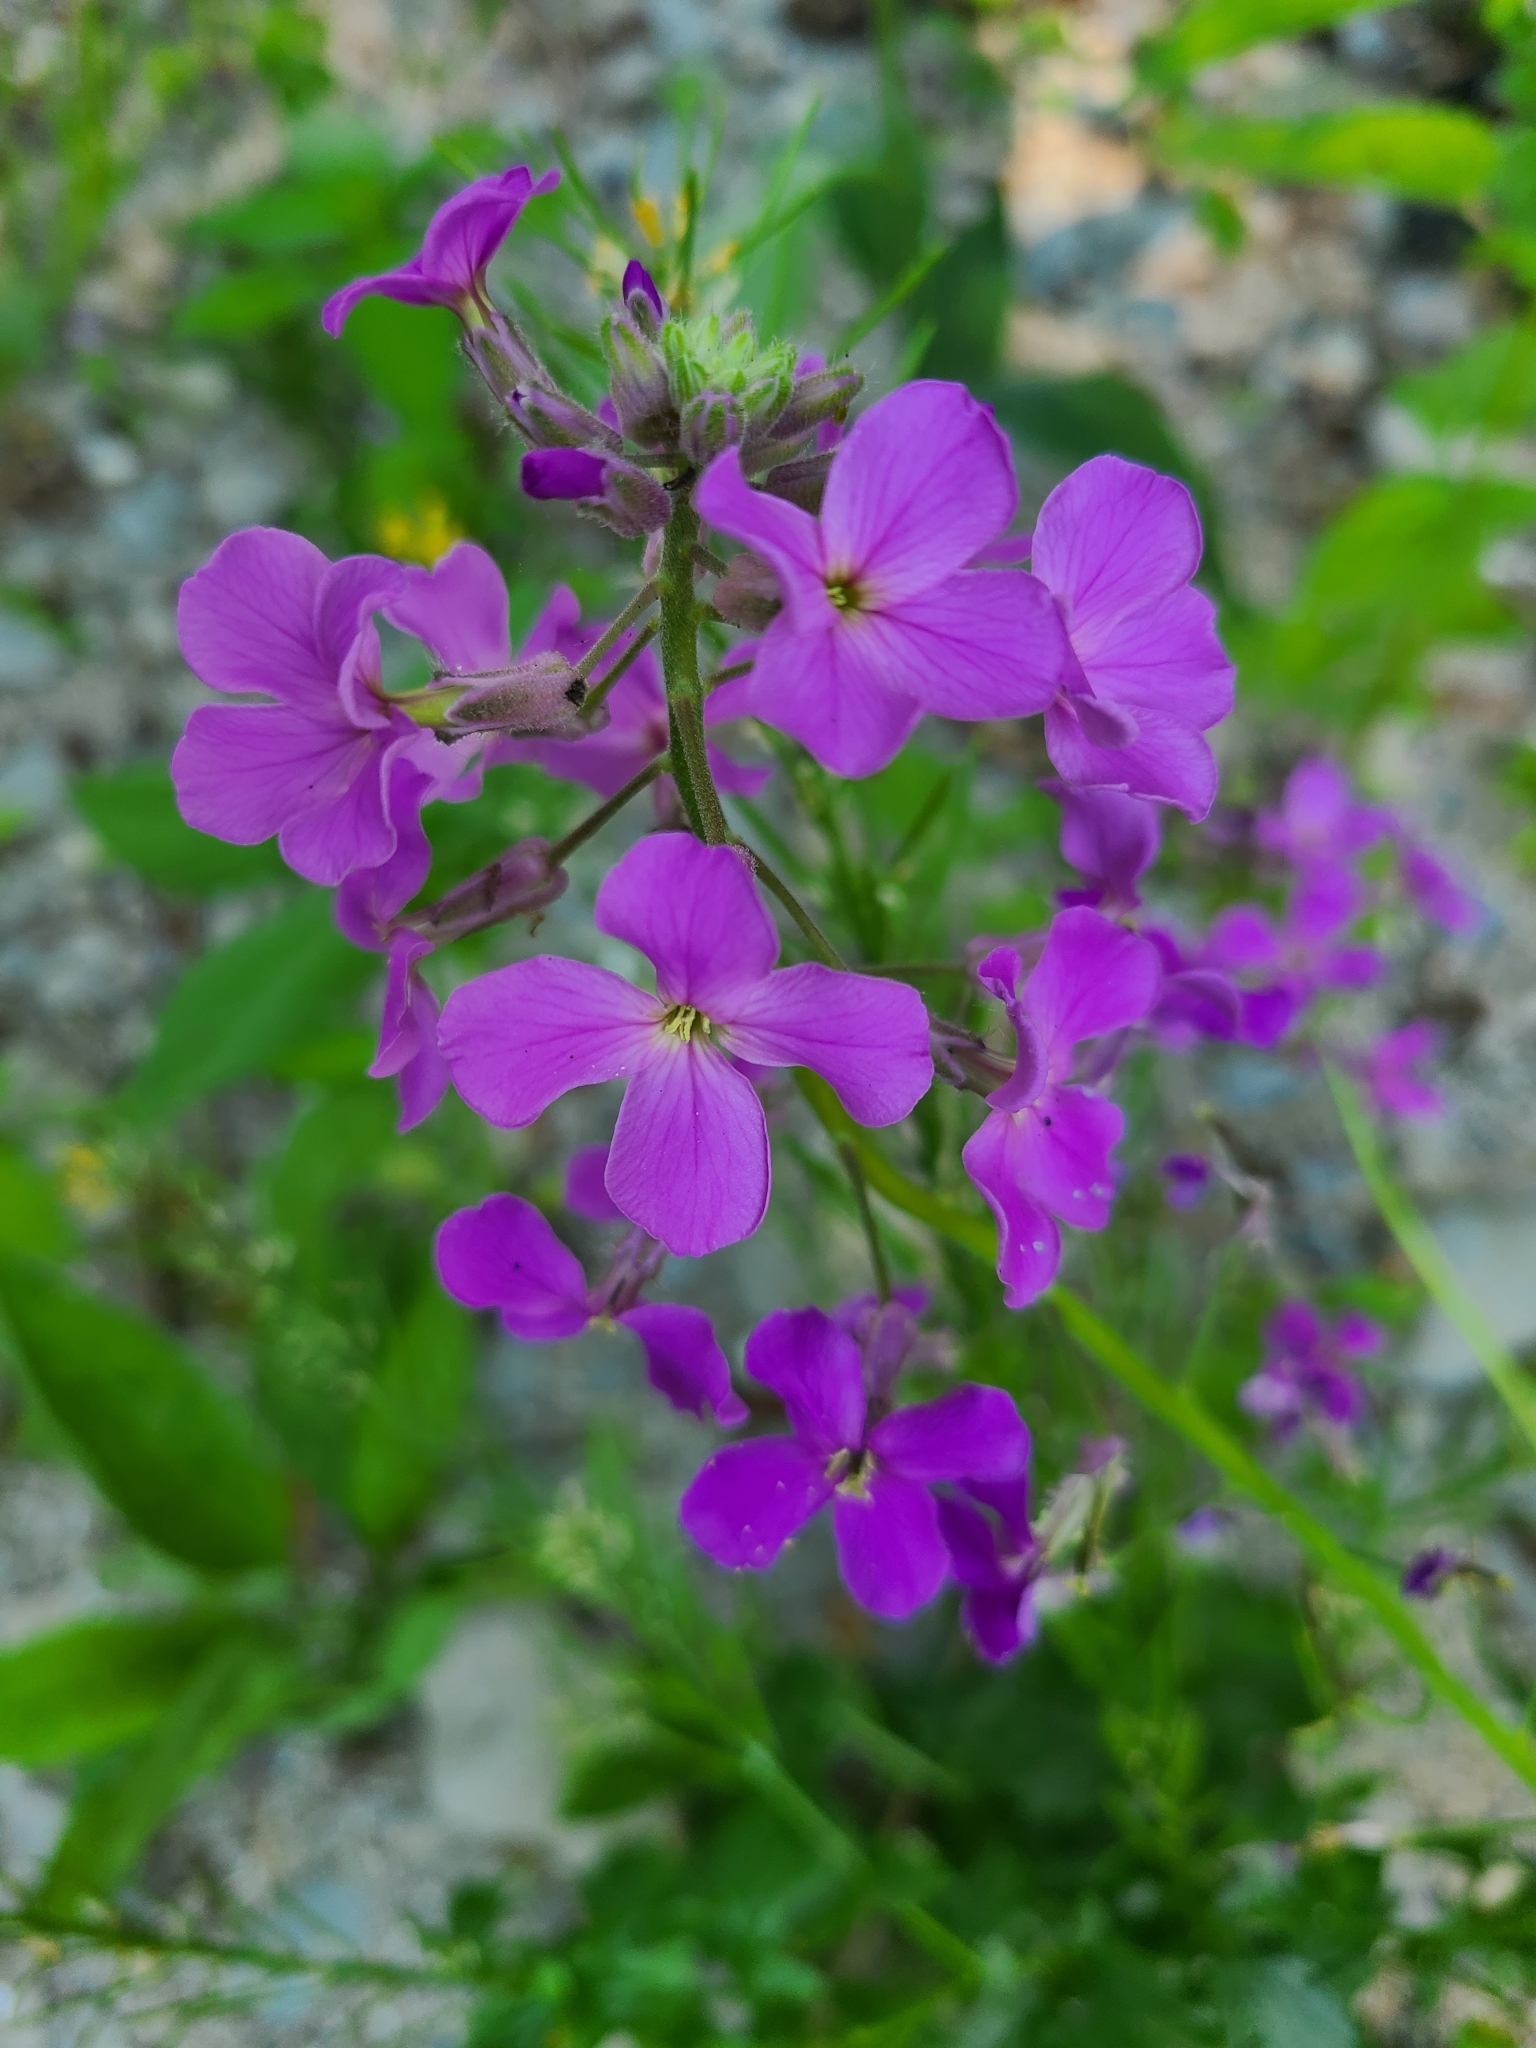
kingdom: Plantae
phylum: Tracheophyta
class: Magnoliopsida
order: Brassicales
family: Brassicaceae
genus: Hesperis
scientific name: Hesperis matronalis
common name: Dame's-violet
